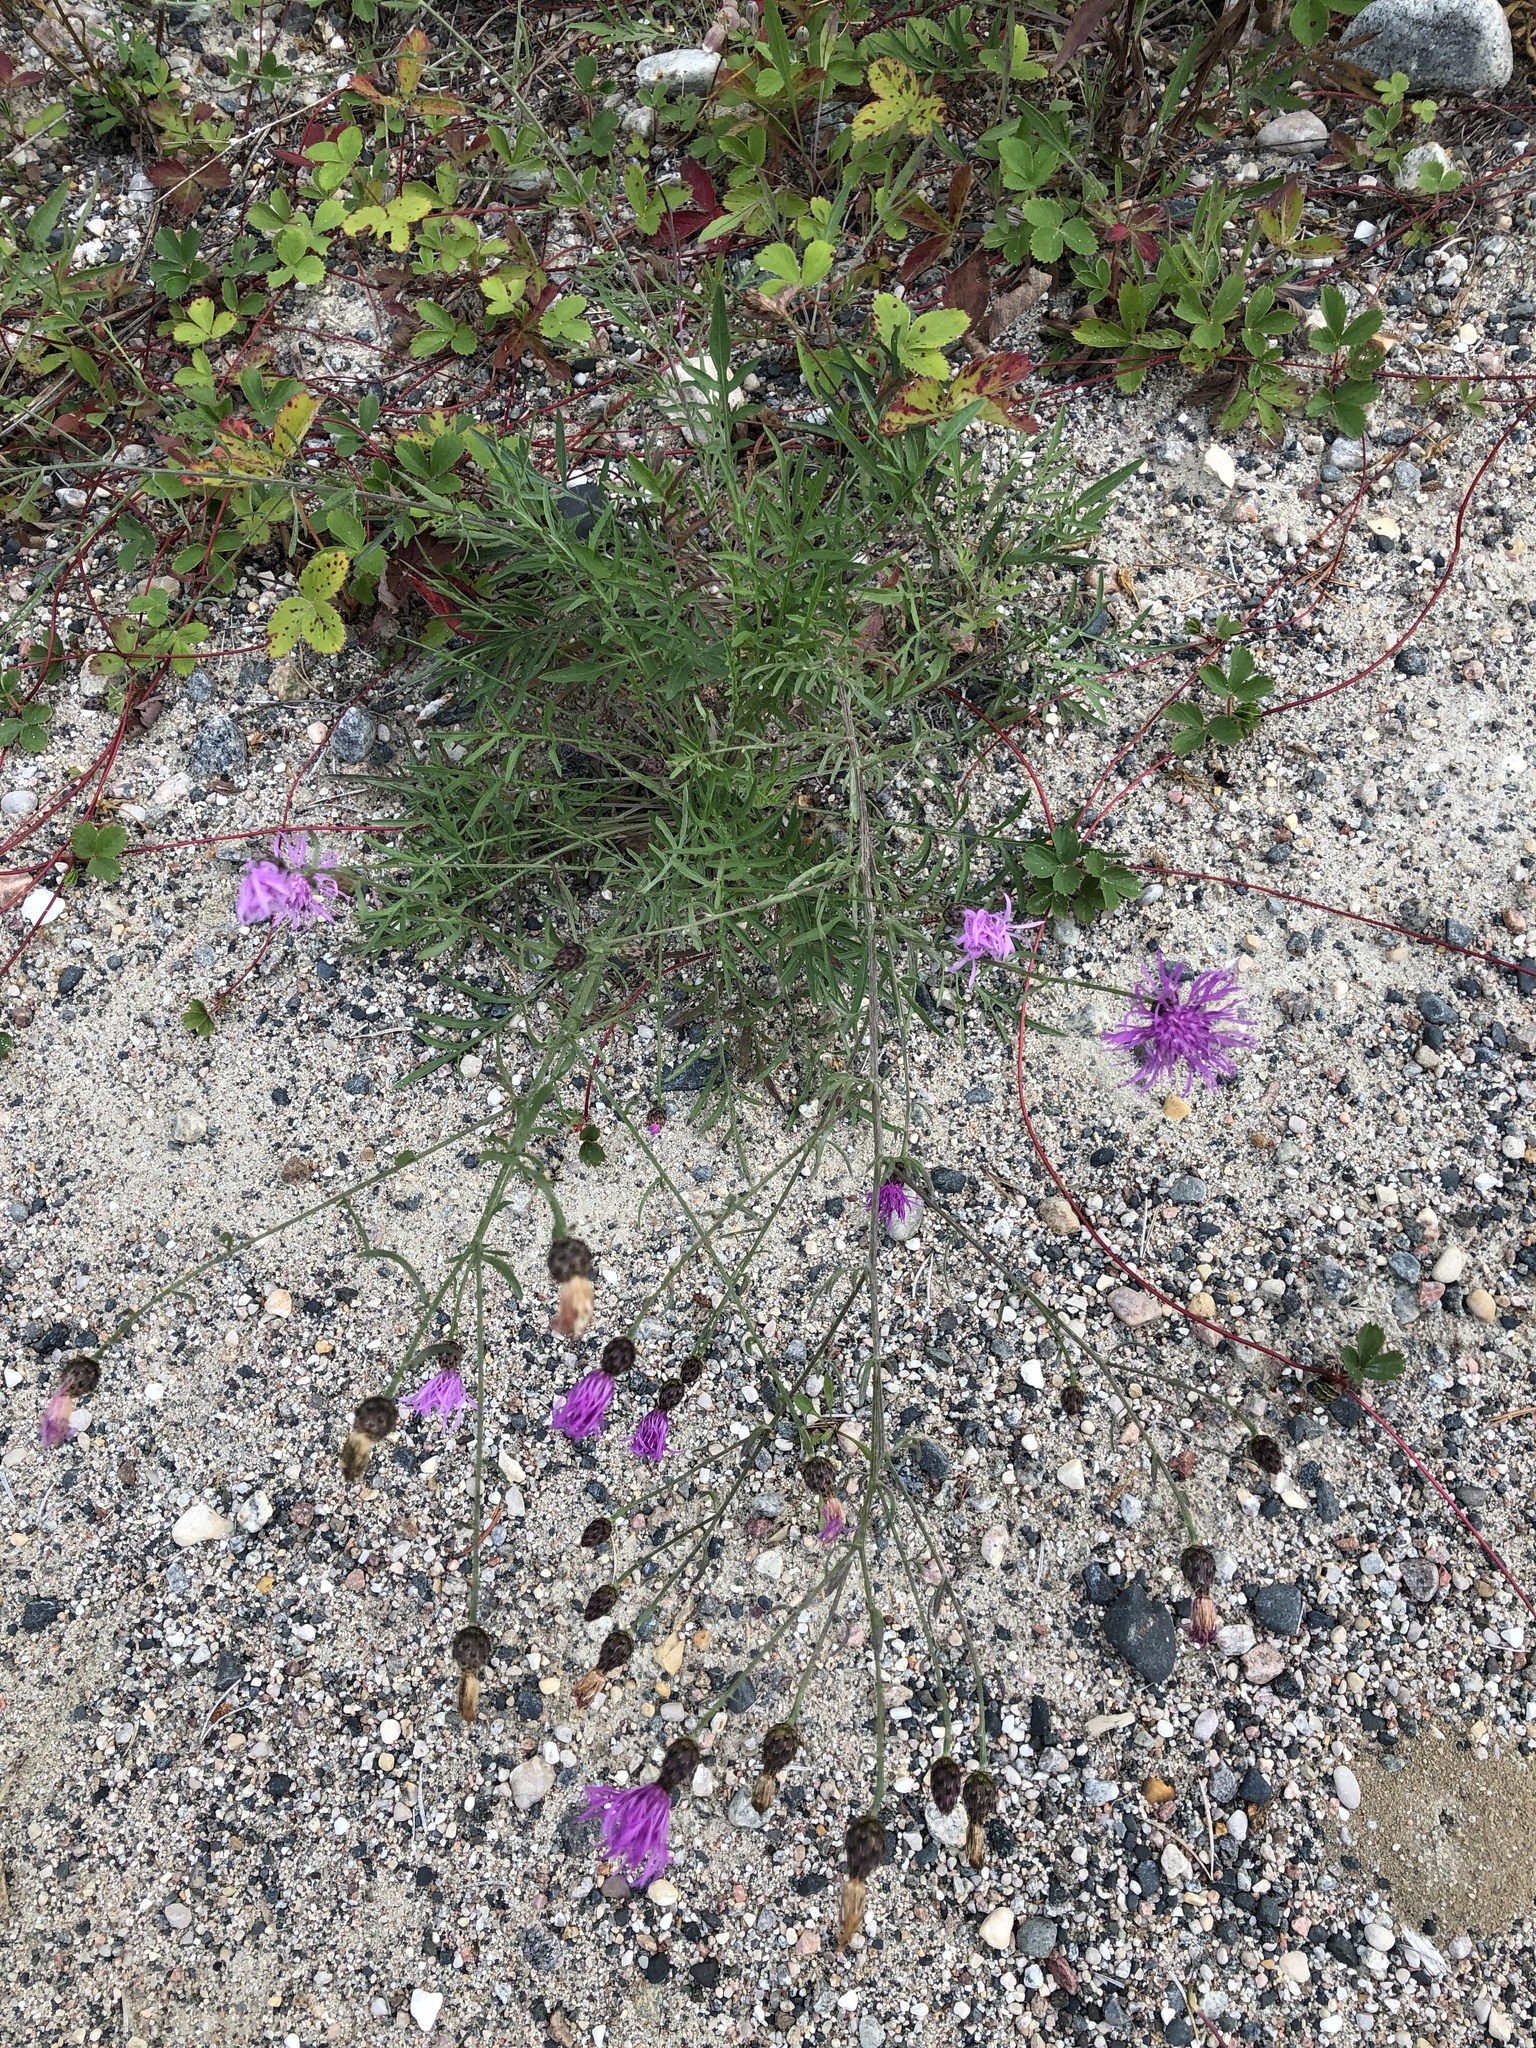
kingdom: Plantae
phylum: Tracheophyta
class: Magnoliopsida
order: Asterales
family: Asteraceae
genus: Centaurea
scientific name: Centaurea stoebe
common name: Spotted knapweed
